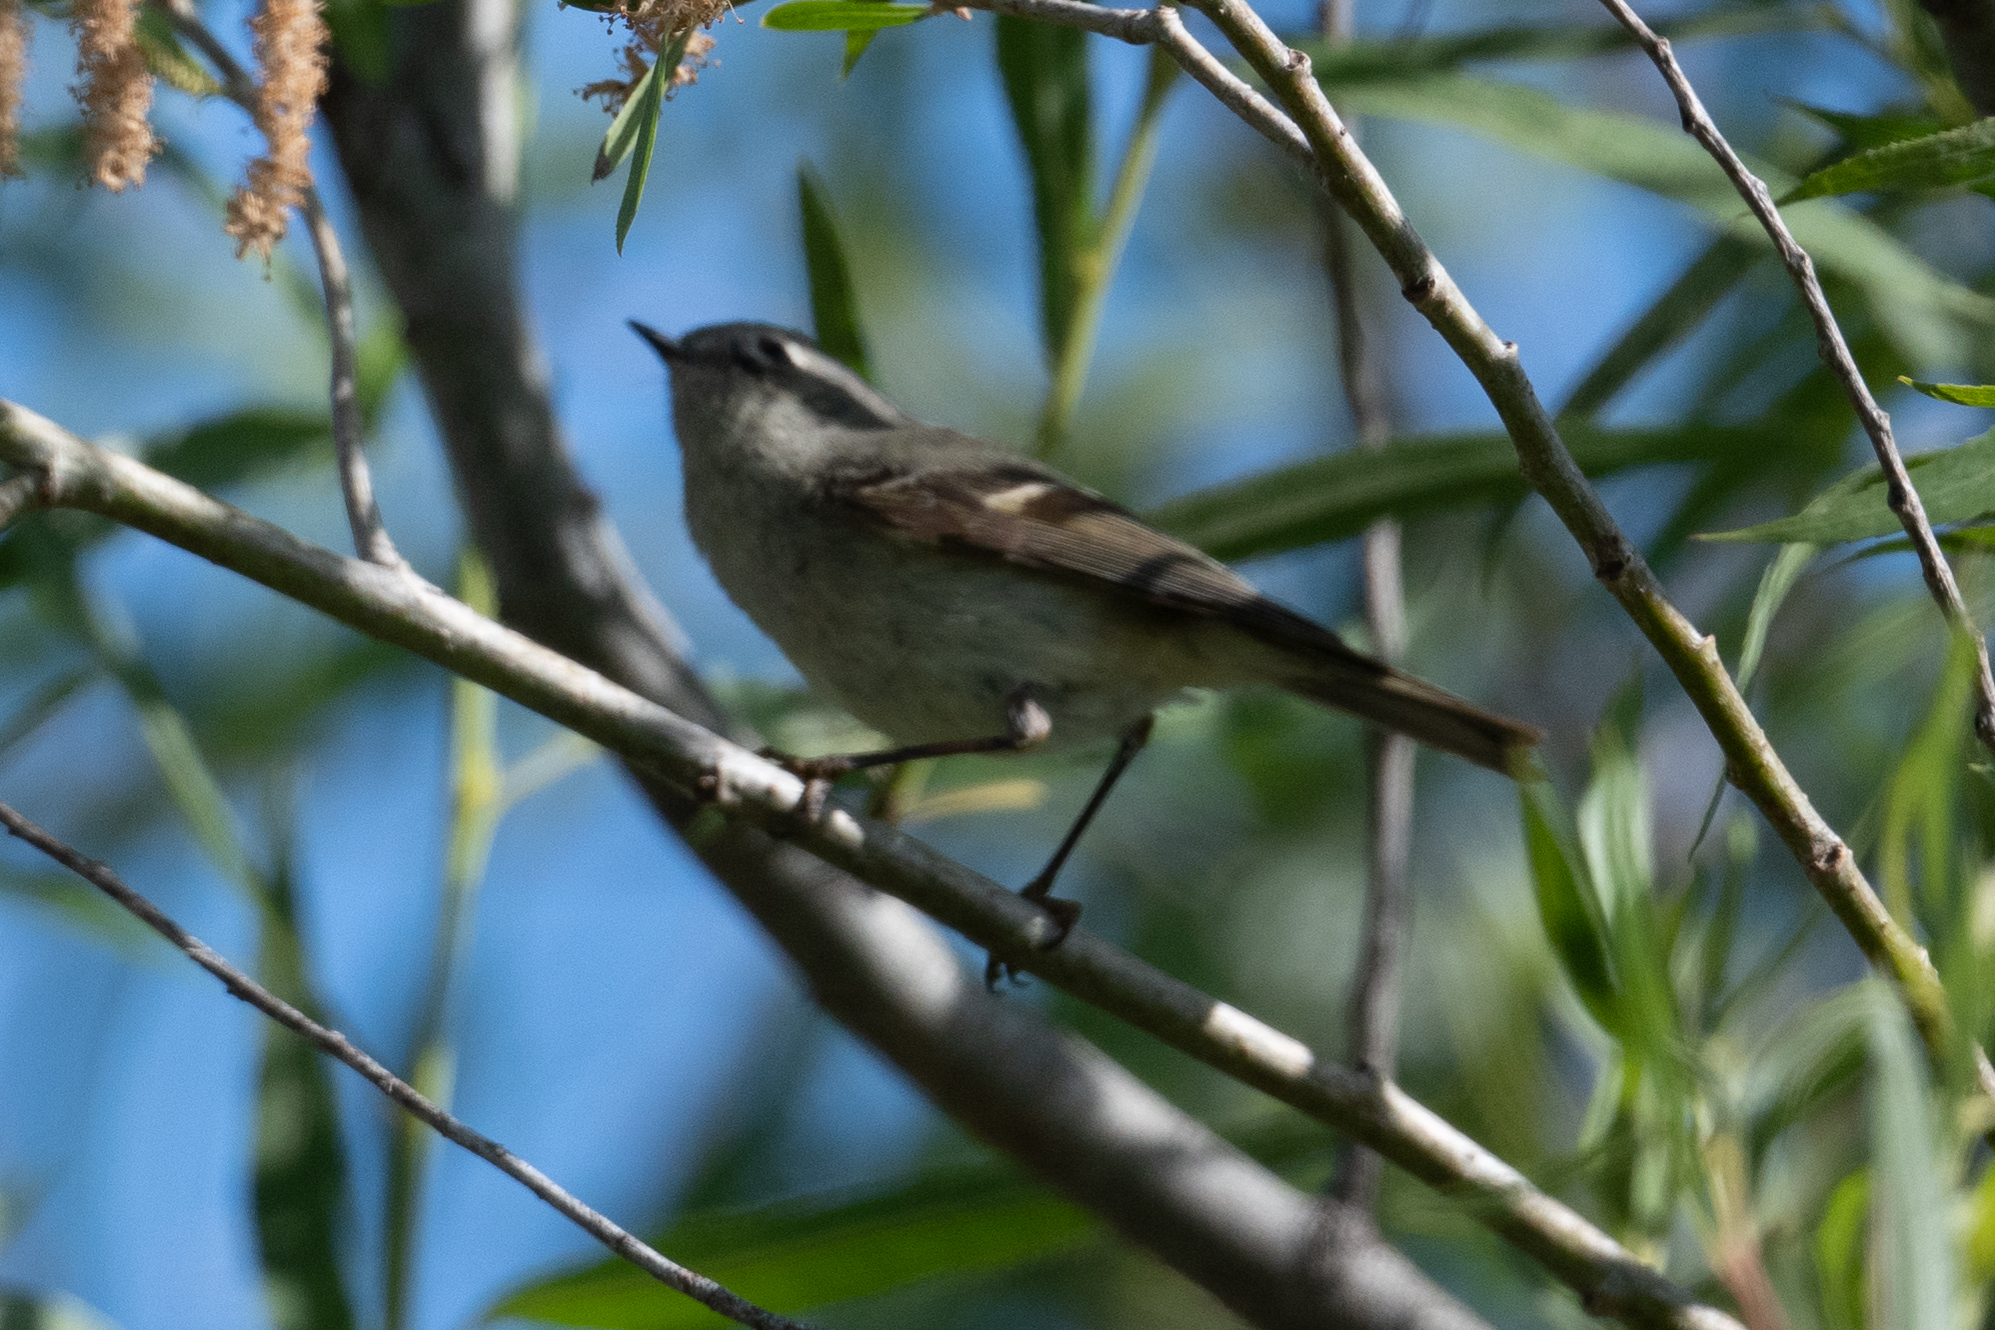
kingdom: Animalia
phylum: Chordata
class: Aves
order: Passeriformes
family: Regulidae
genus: Regulus
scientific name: Regulus calendula
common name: Ruby-crowned kinglet
